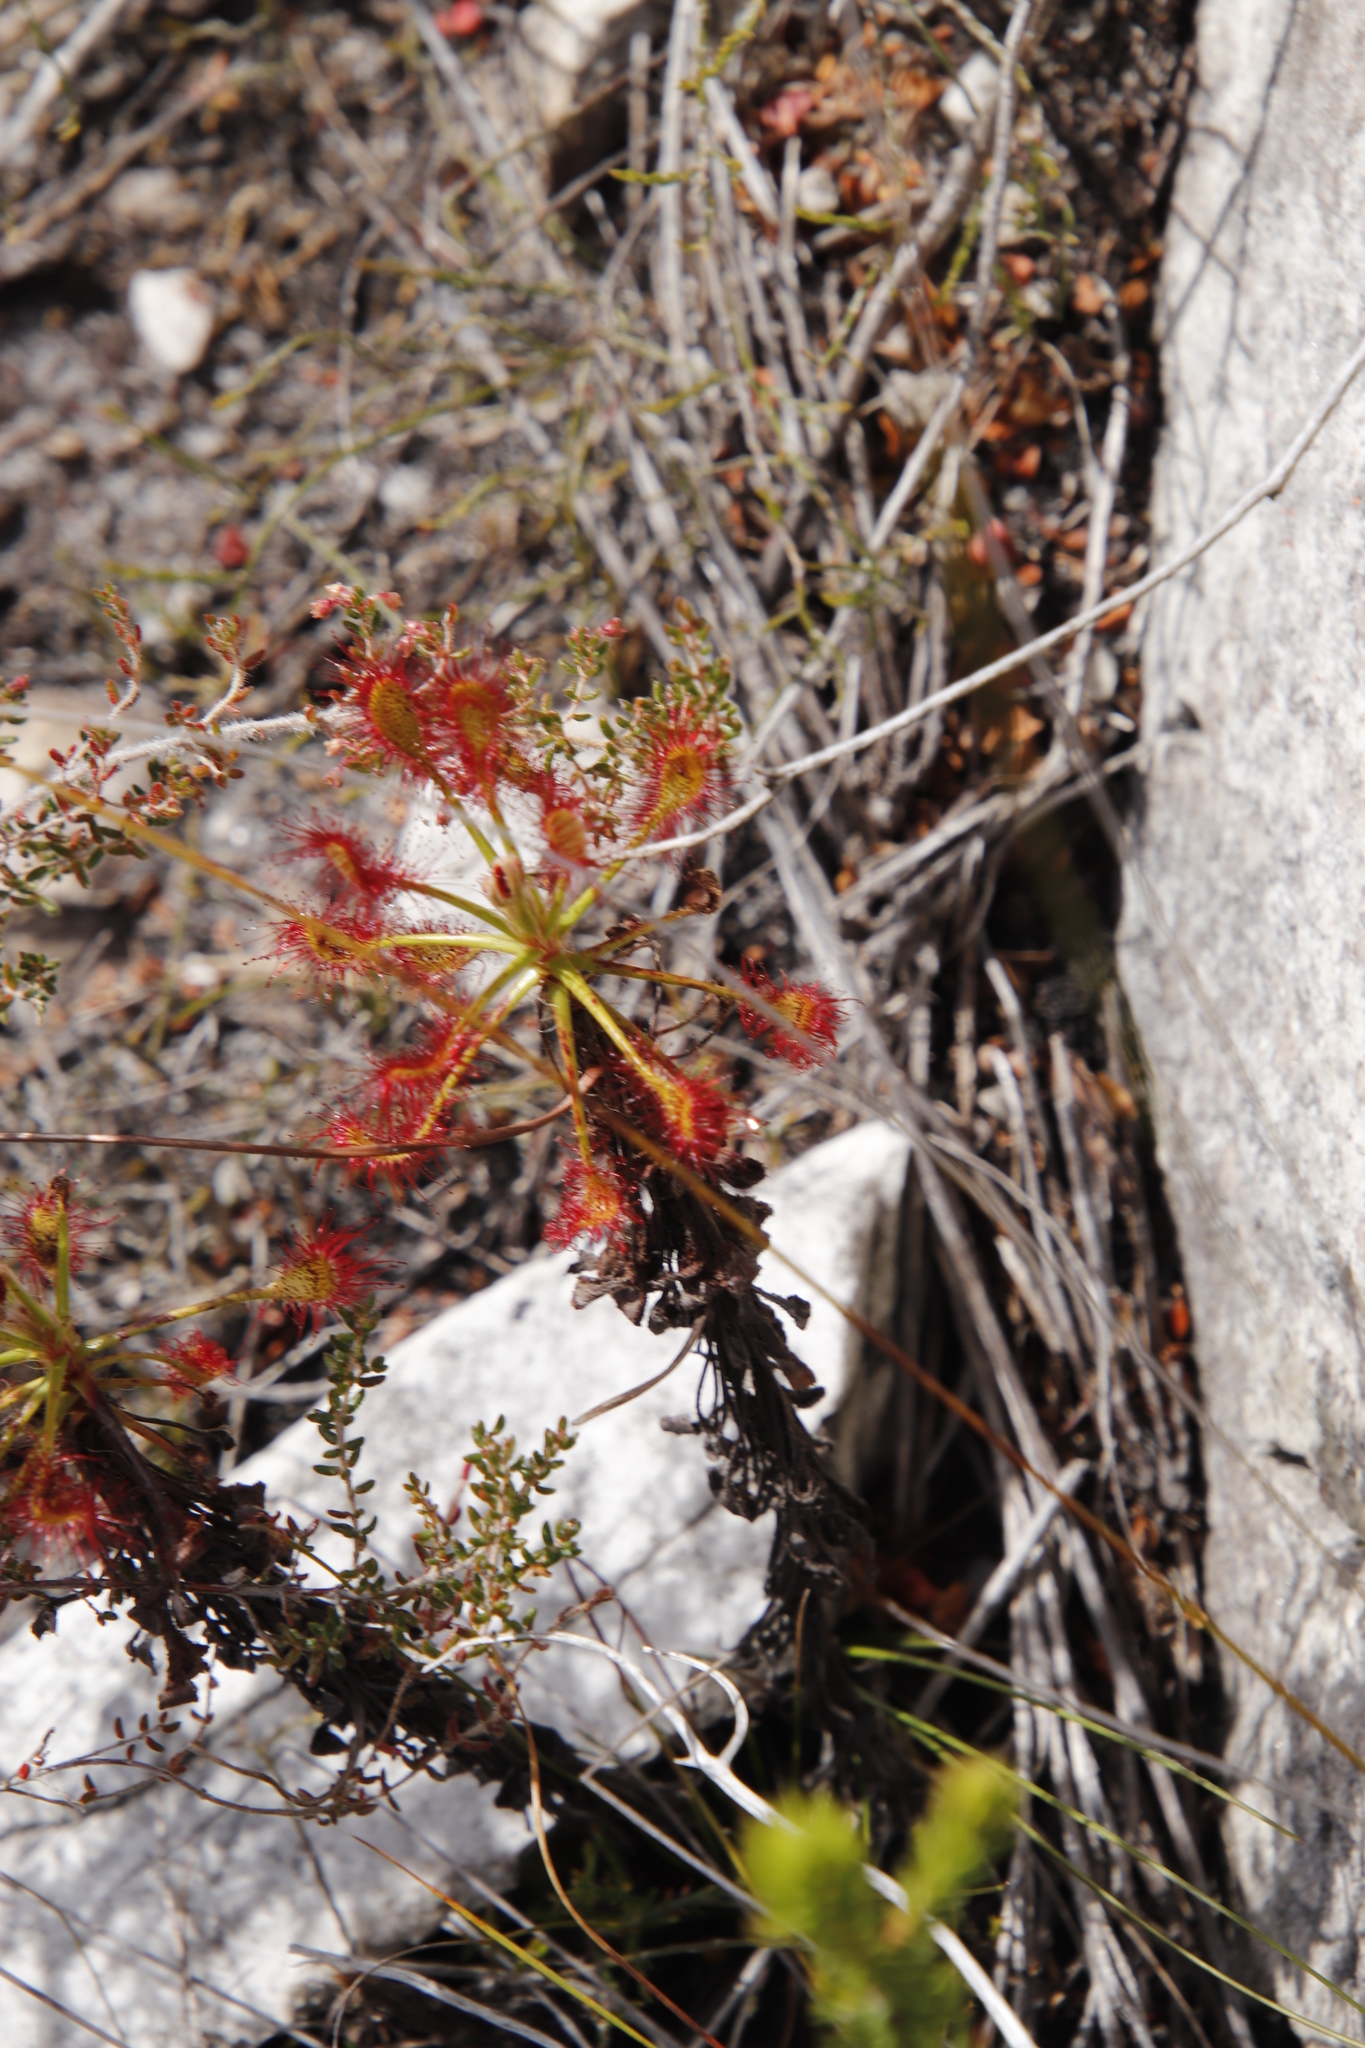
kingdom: Plantae
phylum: Tracheophyta
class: Magnoliopsida
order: Caryophyllales
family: Droseraceae
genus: Drosera
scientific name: Drosera glabripes
